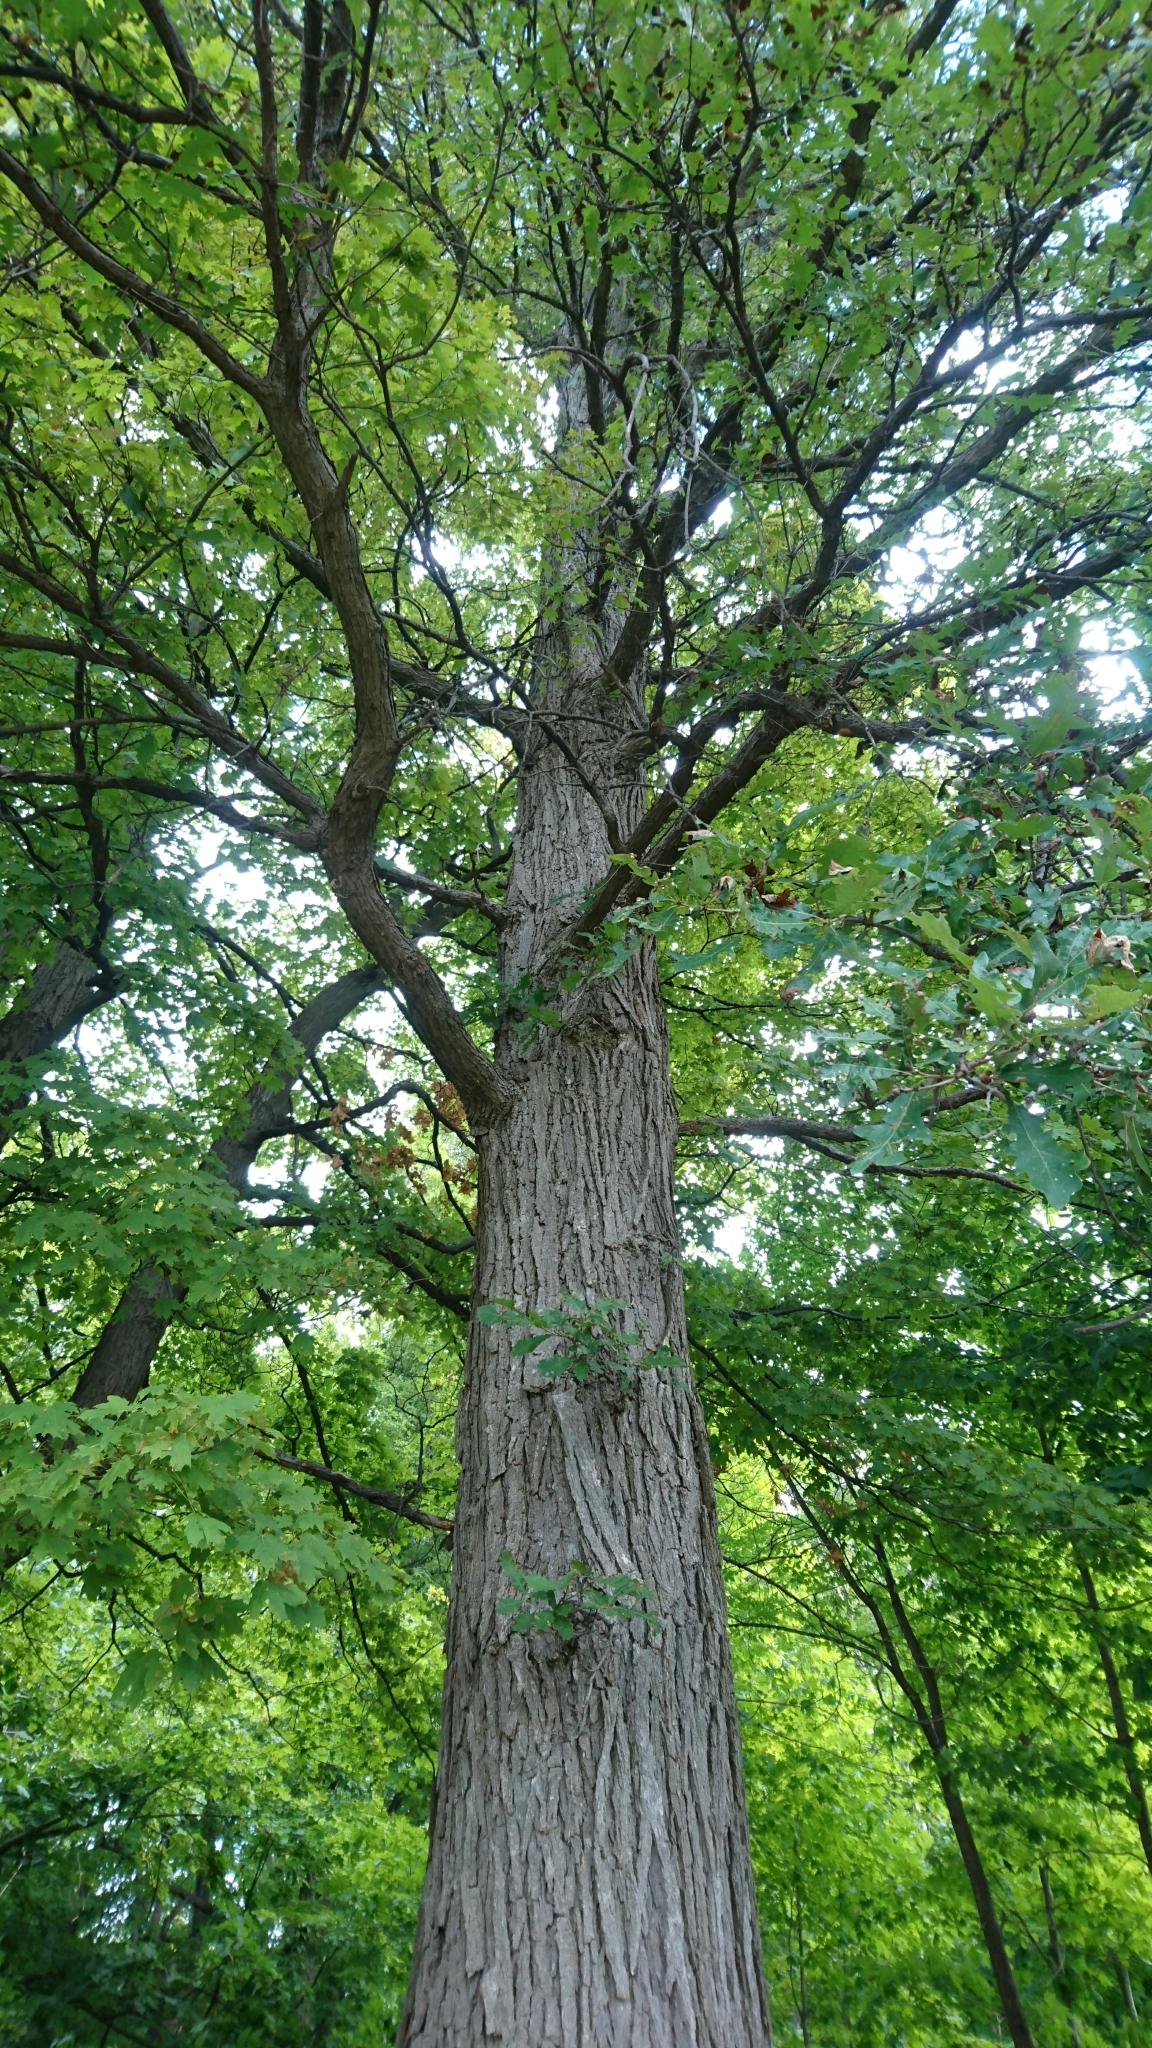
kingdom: Plantae
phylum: Tracheophyta
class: Magnoliopsida
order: Fagales
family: Fagaceae
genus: Quercus
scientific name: Quercus macrocarpa
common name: Bur oak
